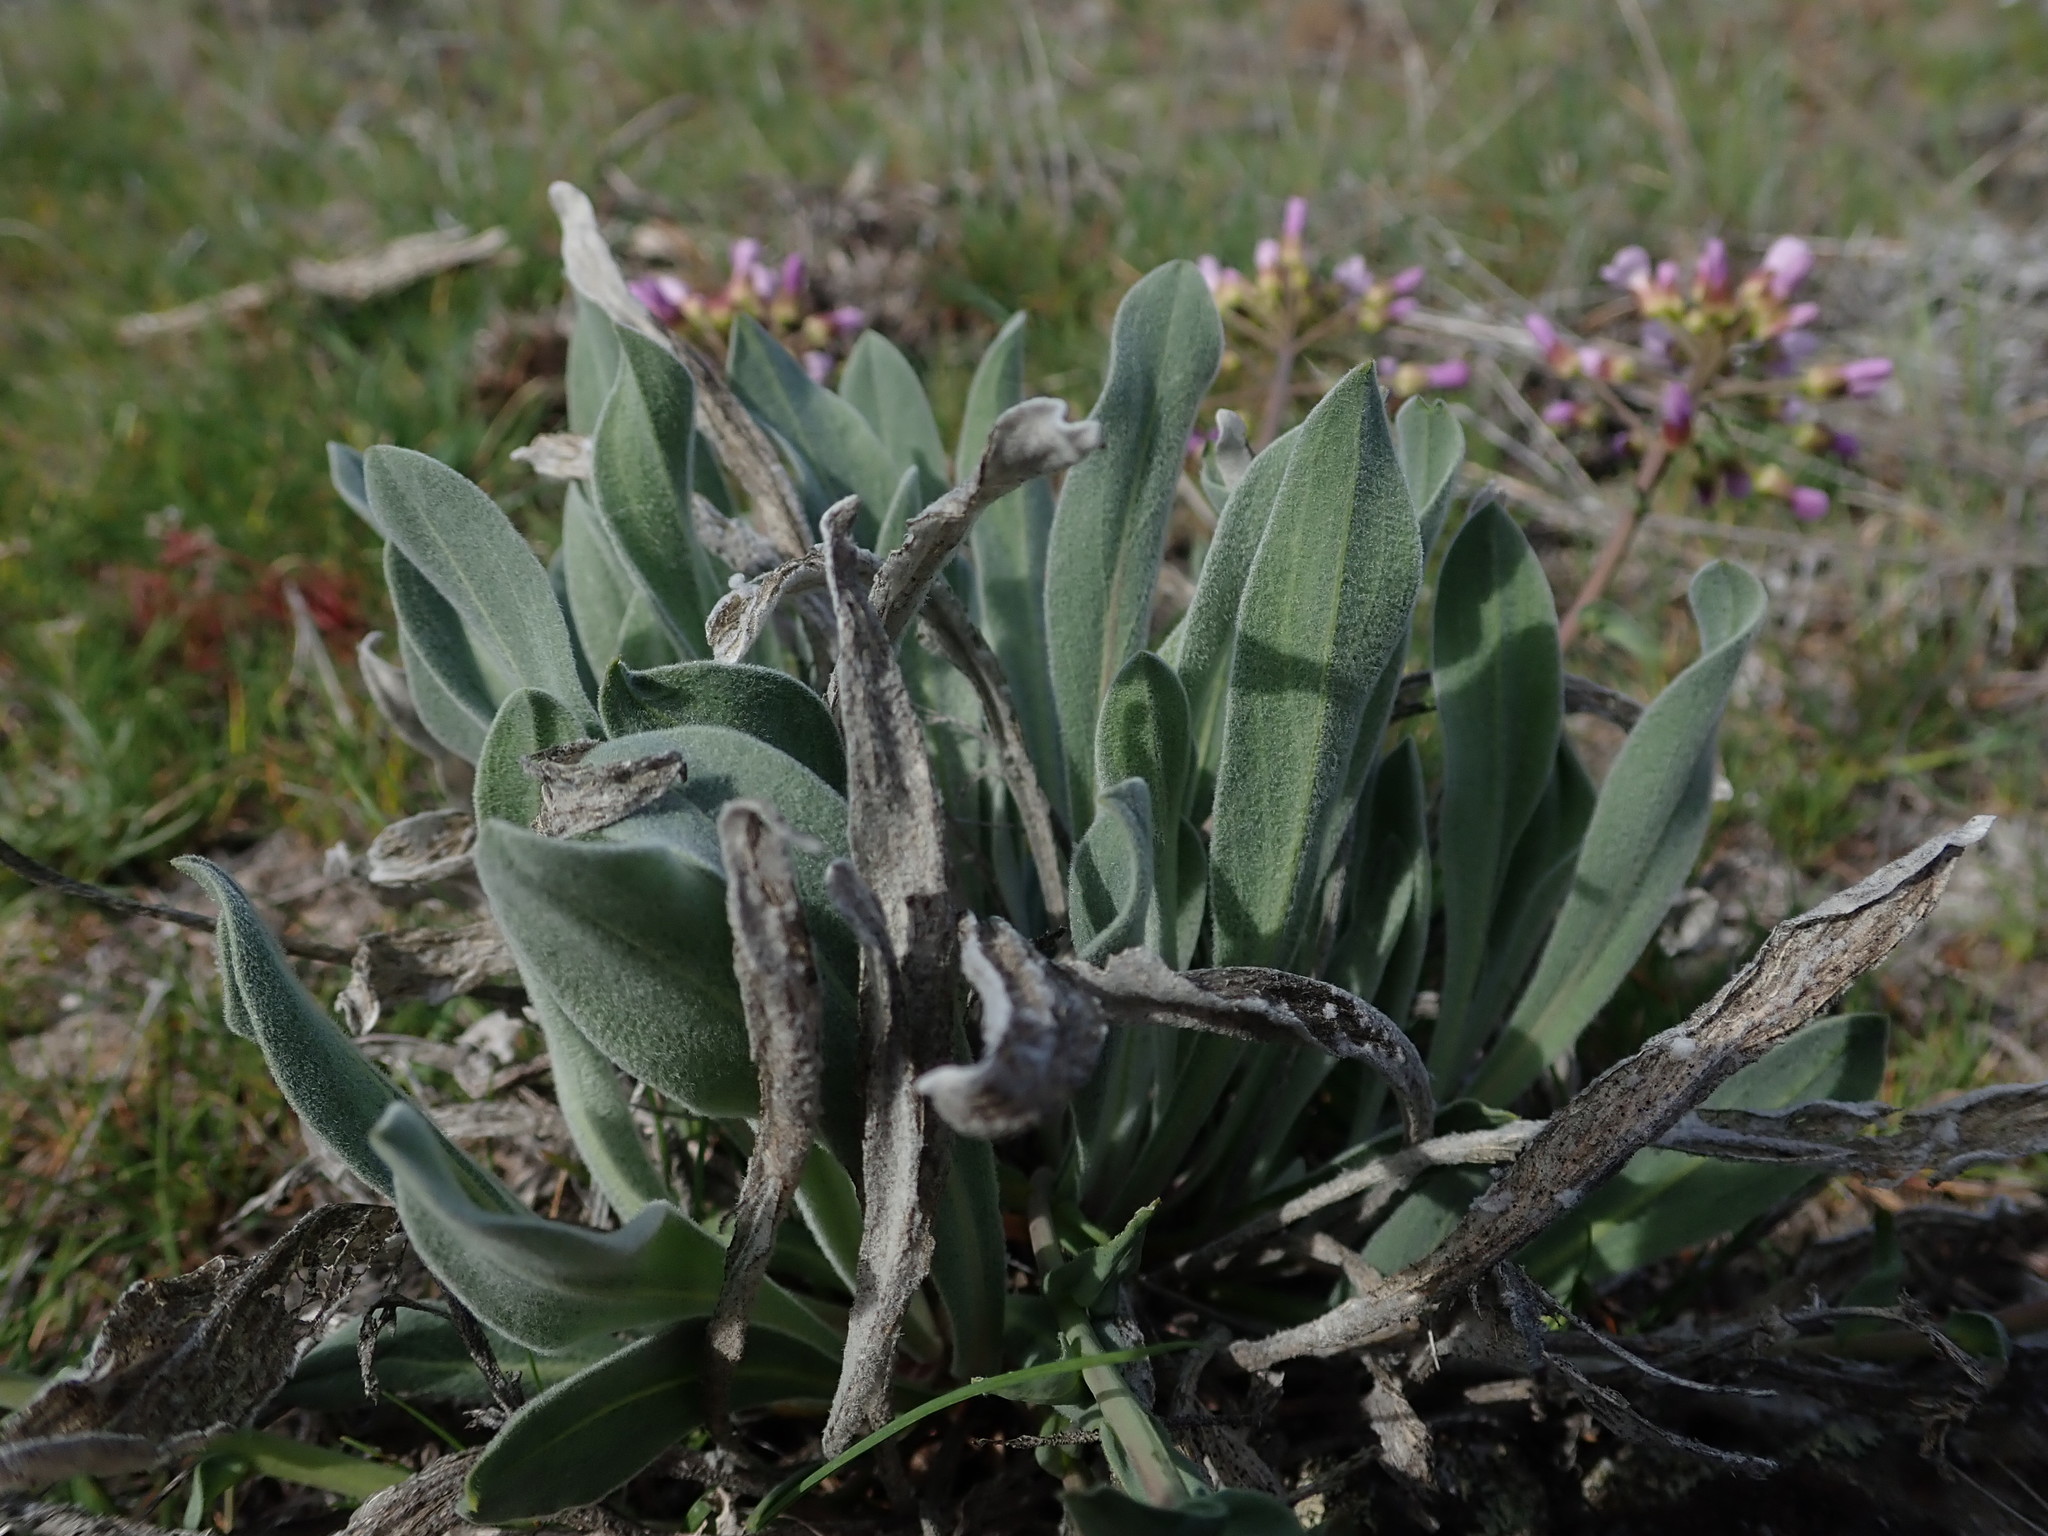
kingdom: Plantae
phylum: Tracheophyta
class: Magnoliopsida
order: Brassicales
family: Brassicaceae
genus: Phoenicaulis
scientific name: Phoenicaulis cheiranthoides
